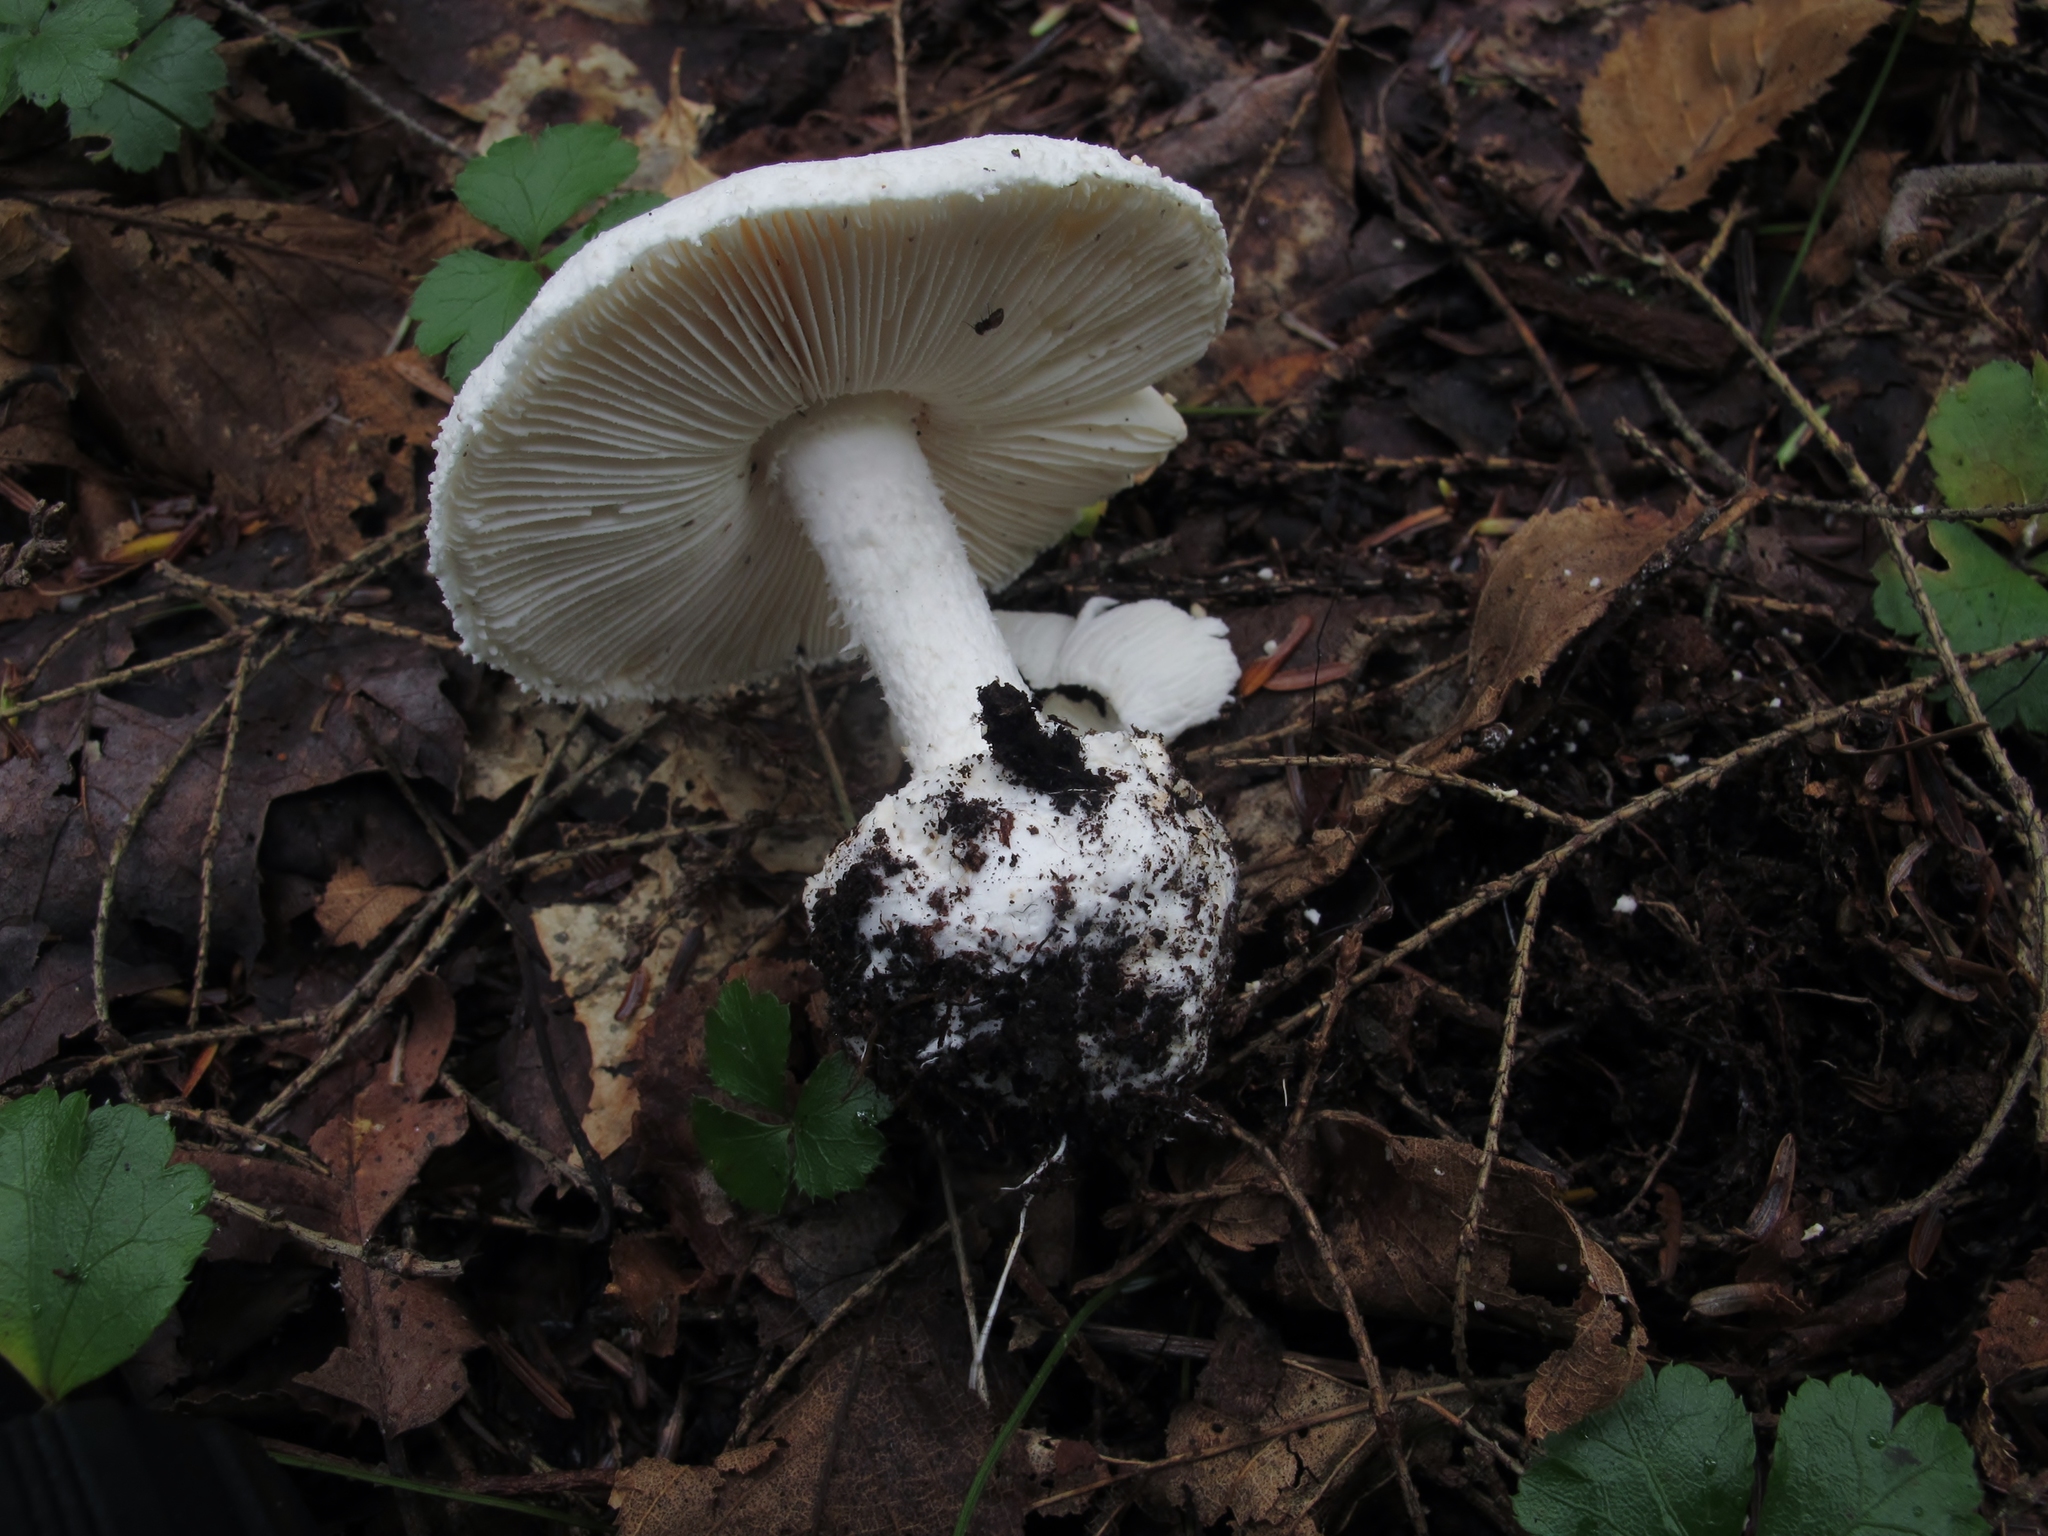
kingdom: Fungi
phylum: Basidiomycota
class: Agaricomycetes
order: Agaricales
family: Amanitaceae
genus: Amanita
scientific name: Amanita abrupta
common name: American abrupt-bulbed lepidella
